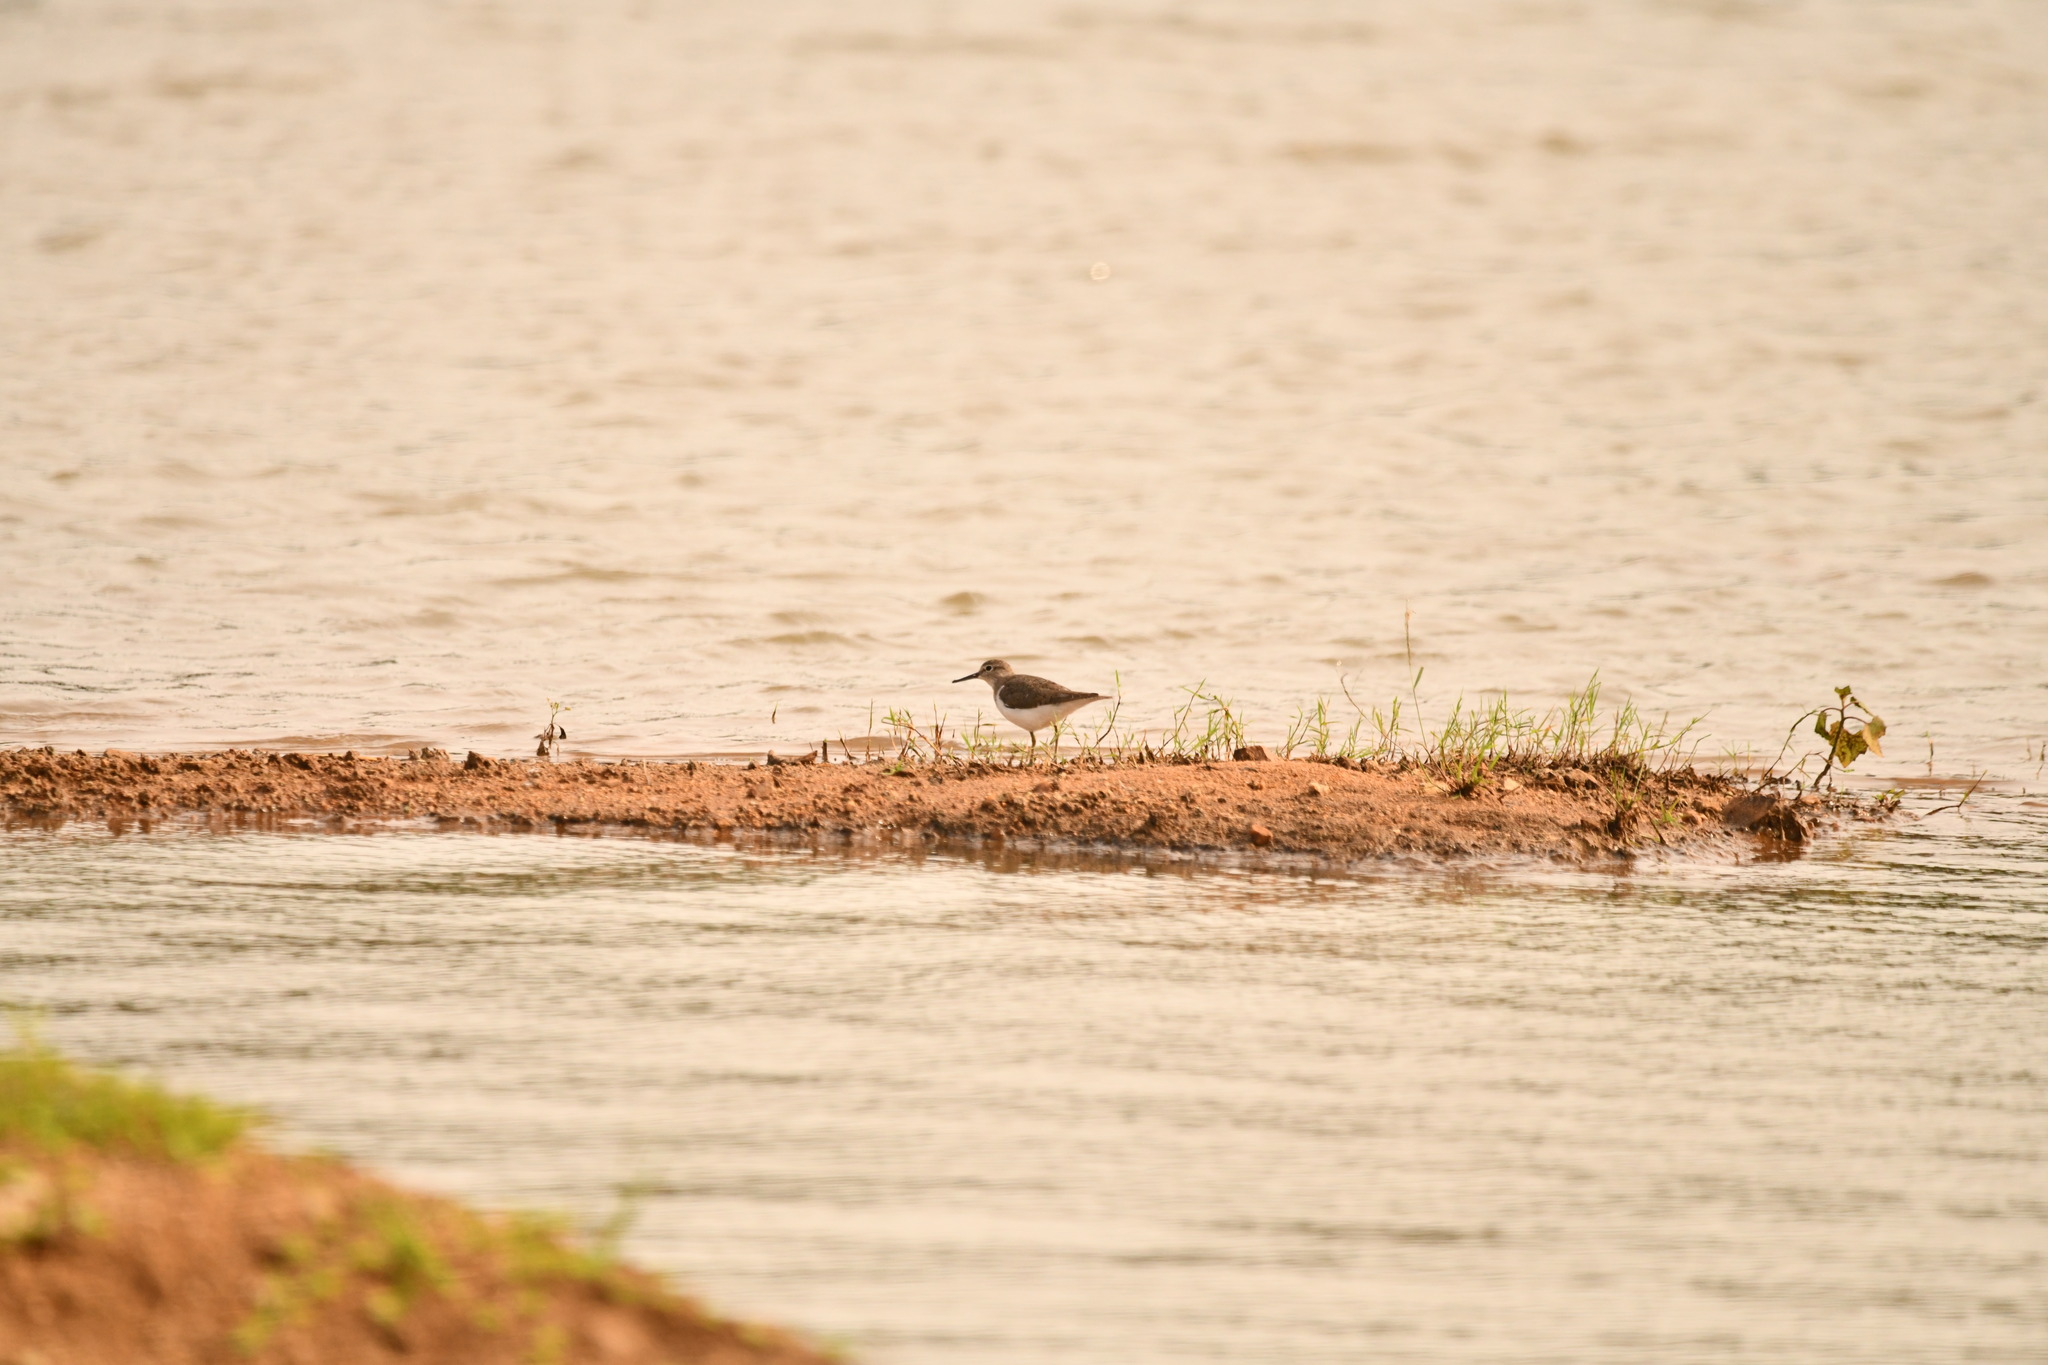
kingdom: Animalia
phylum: Chordata
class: Aves
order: Charadriiformes
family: Scolopacidae
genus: Actitis
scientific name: Actitis hypoleucos
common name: Common sandpiper
